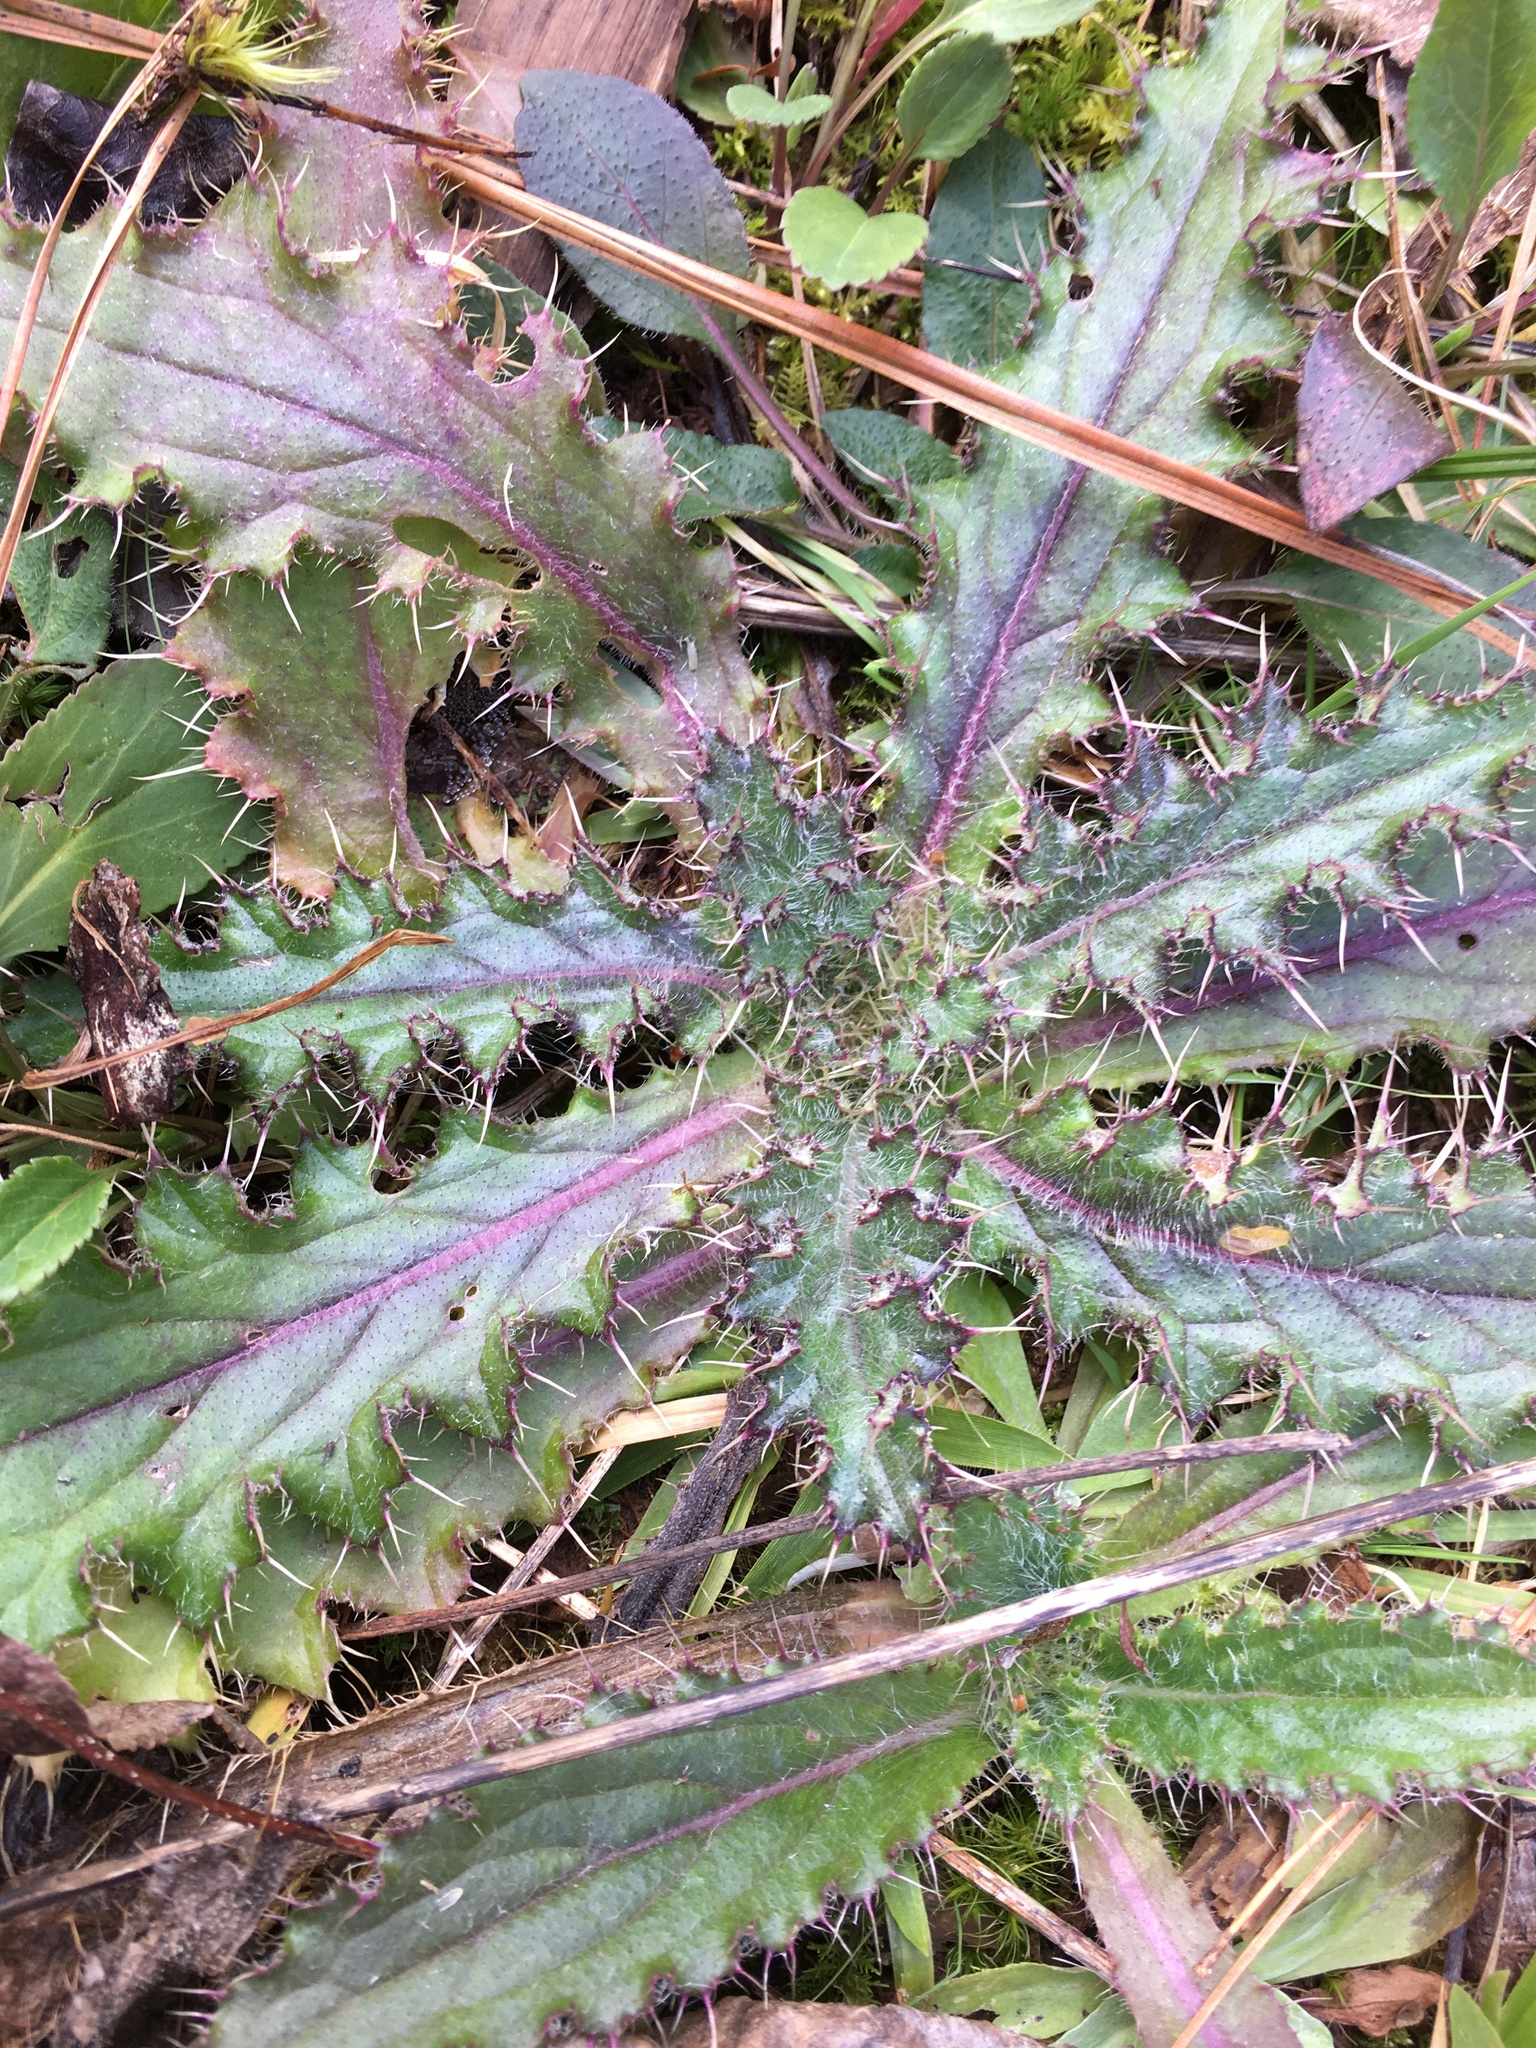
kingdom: Plantae
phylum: Tracheophyta
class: Magnoliopsida
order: Asterales
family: Asteraceae
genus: Cirsium
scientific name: Cirsium horridulum
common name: Bristly thistle
